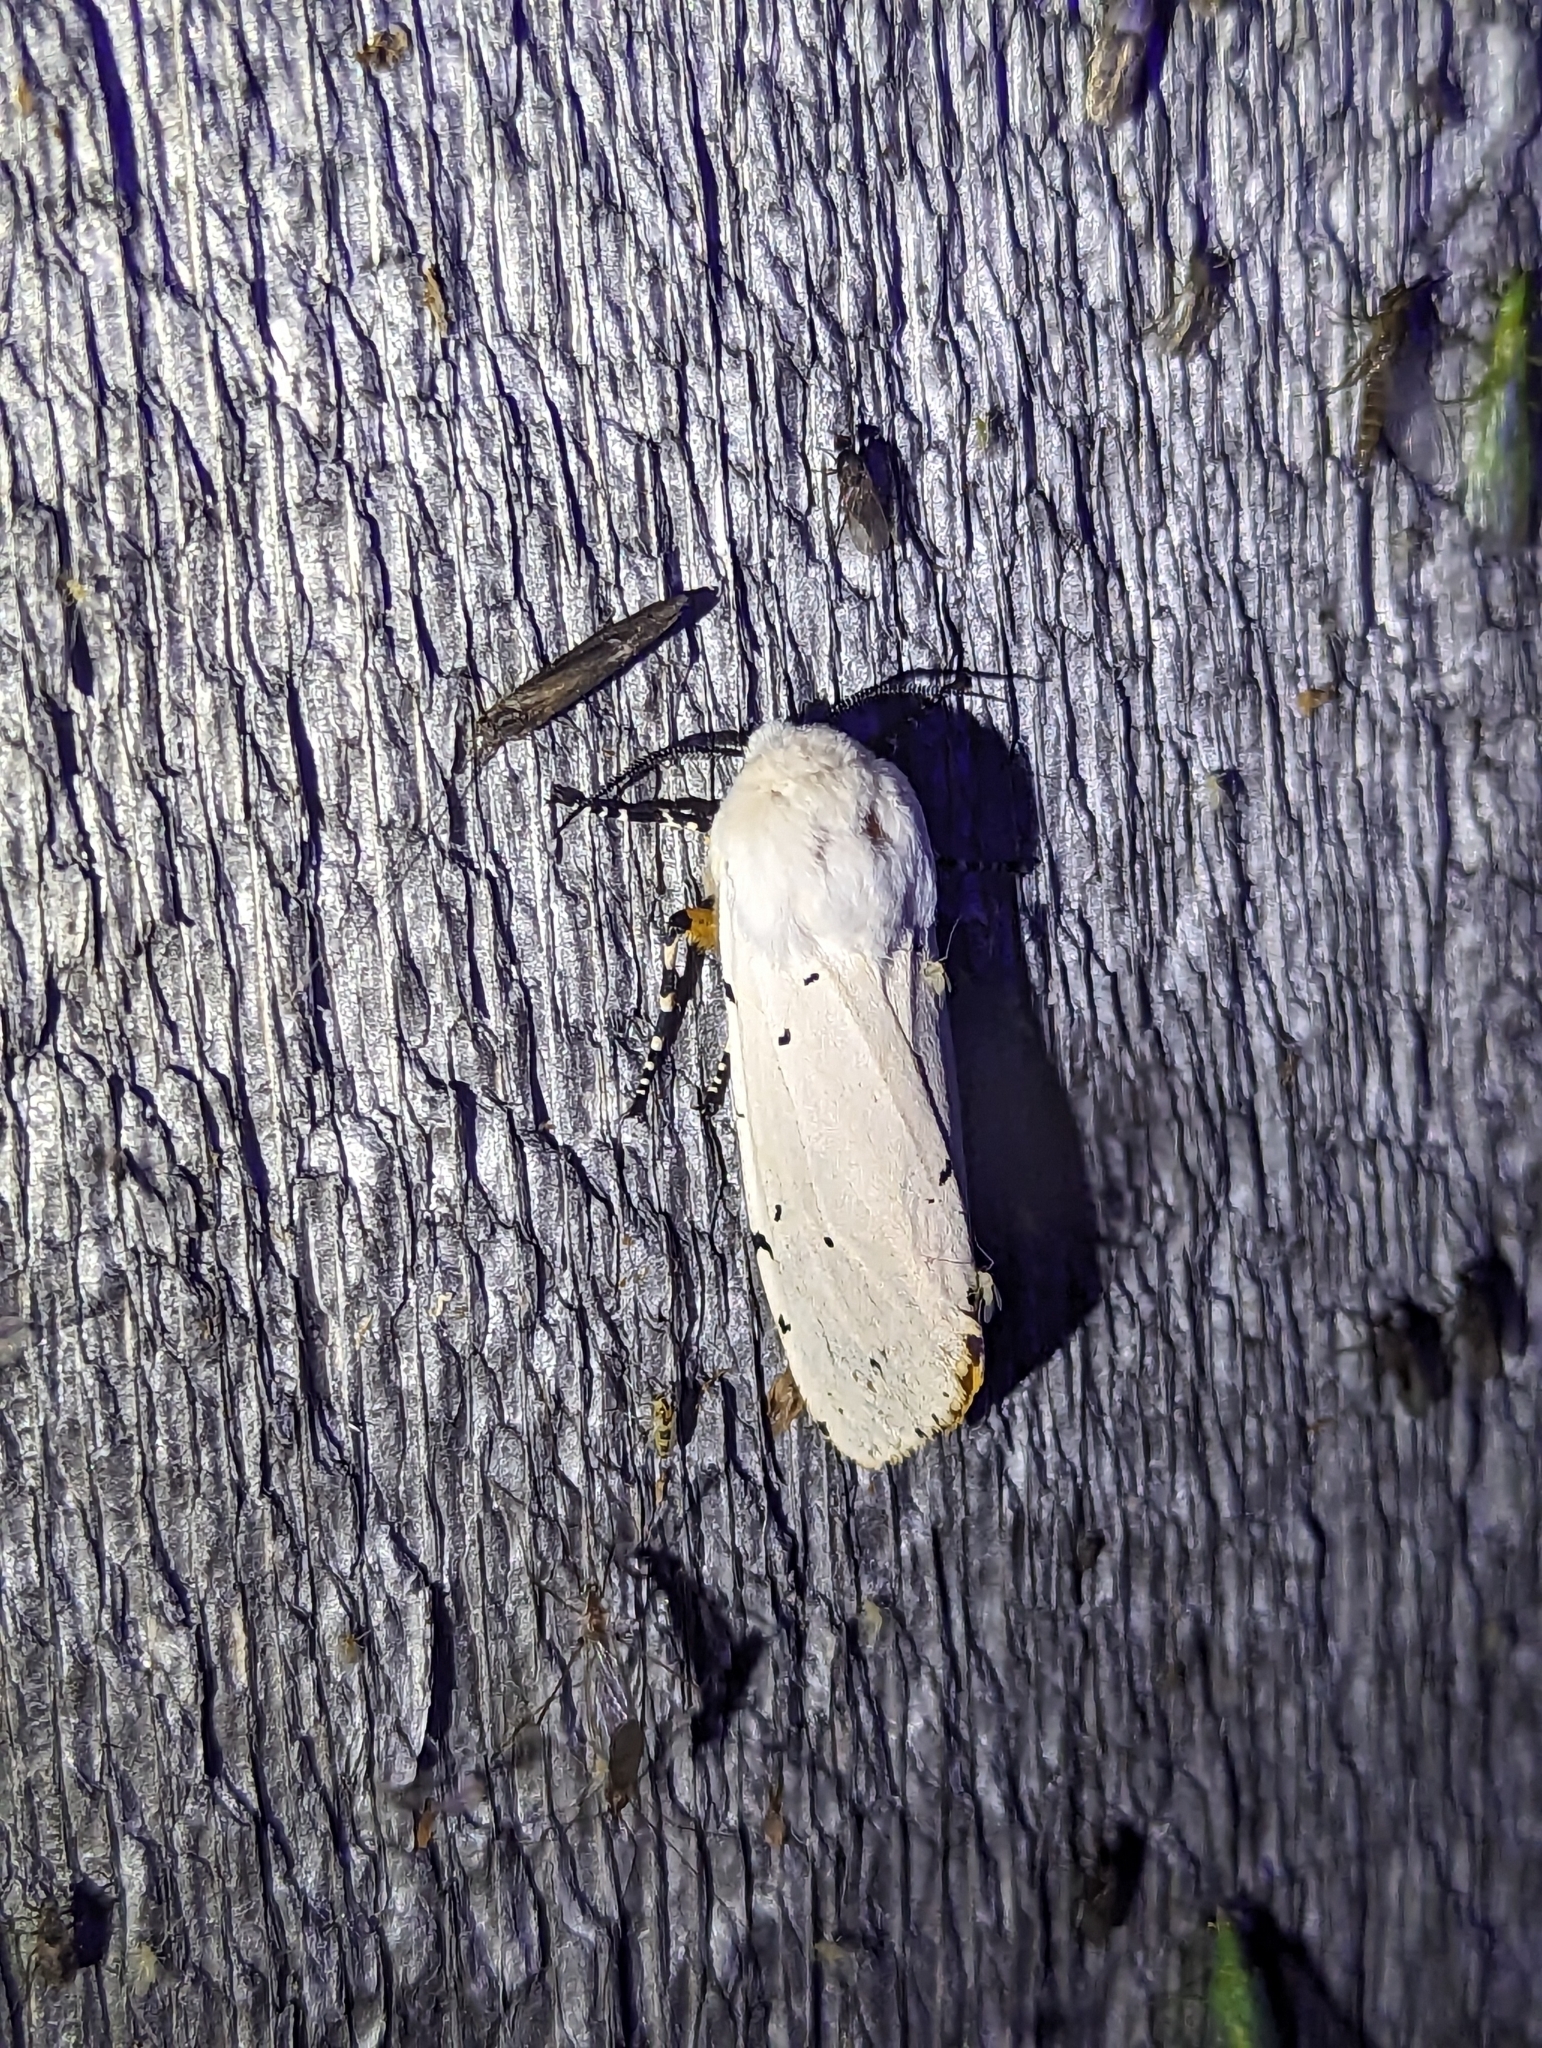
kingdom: Animalia
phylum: Arthropoda
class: Insecta
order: Lepidoptera
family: Erebidae
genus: Estigmene
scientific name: Estigmene acrea
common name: Salt marsh moth
